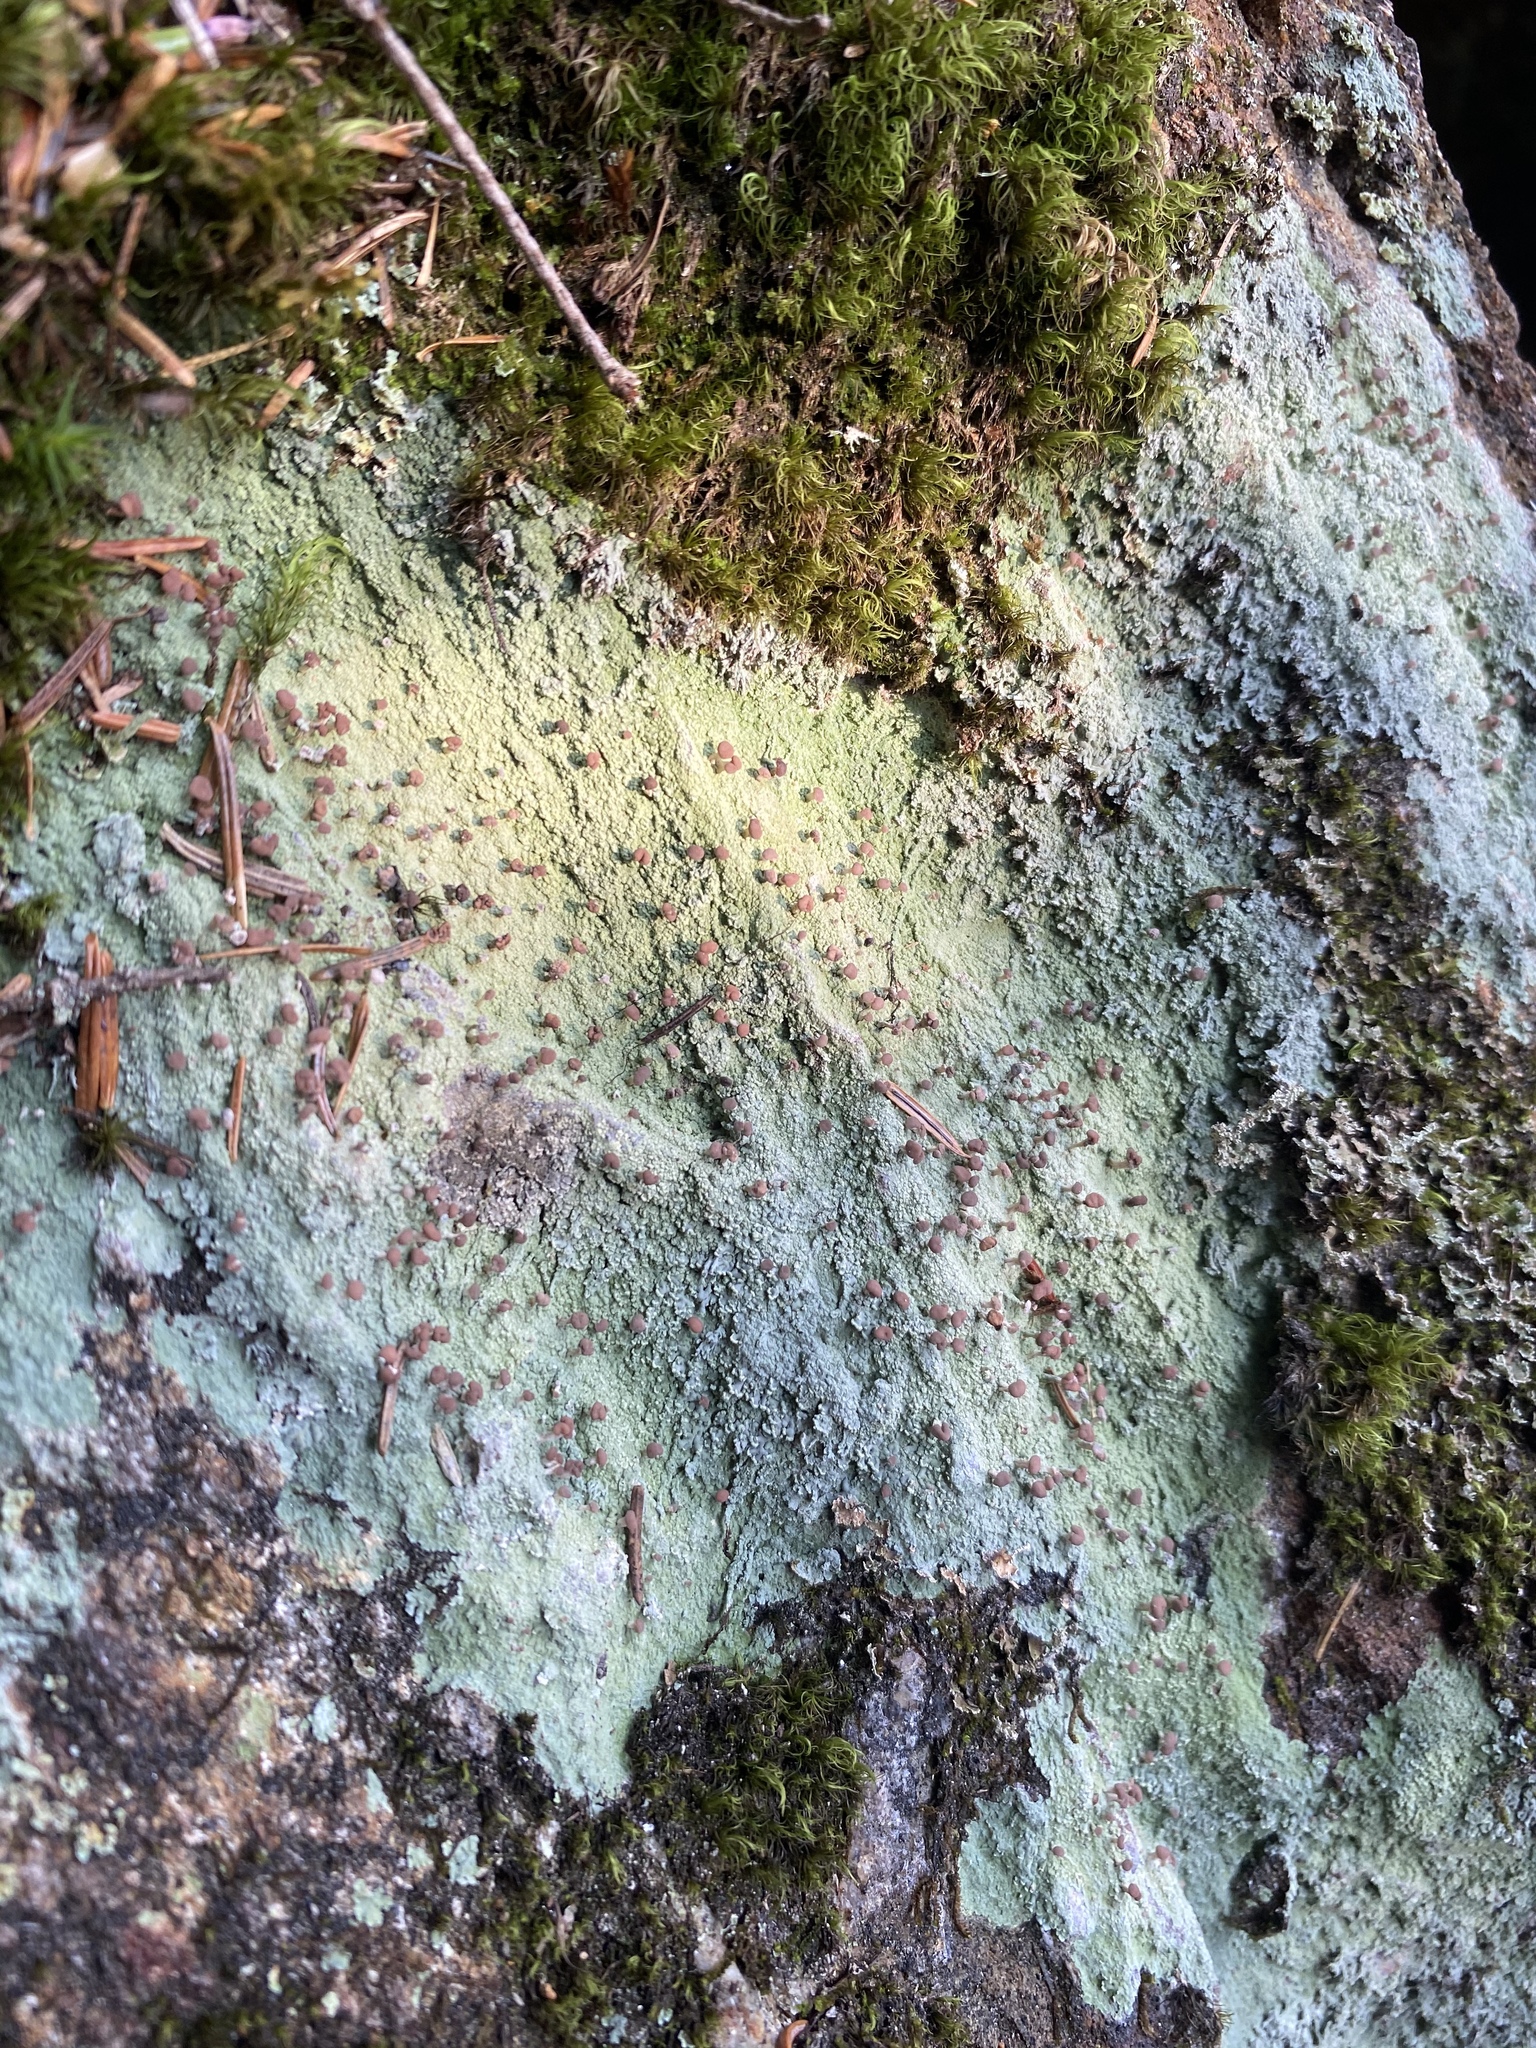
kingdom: Fungi
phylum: Ascomycota
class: Lecanoromycetes
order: Baeomycetales
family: Baeomycetaceae
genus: Baeomyces
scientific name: Baeomyces rufus
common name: Brown beret lichen
